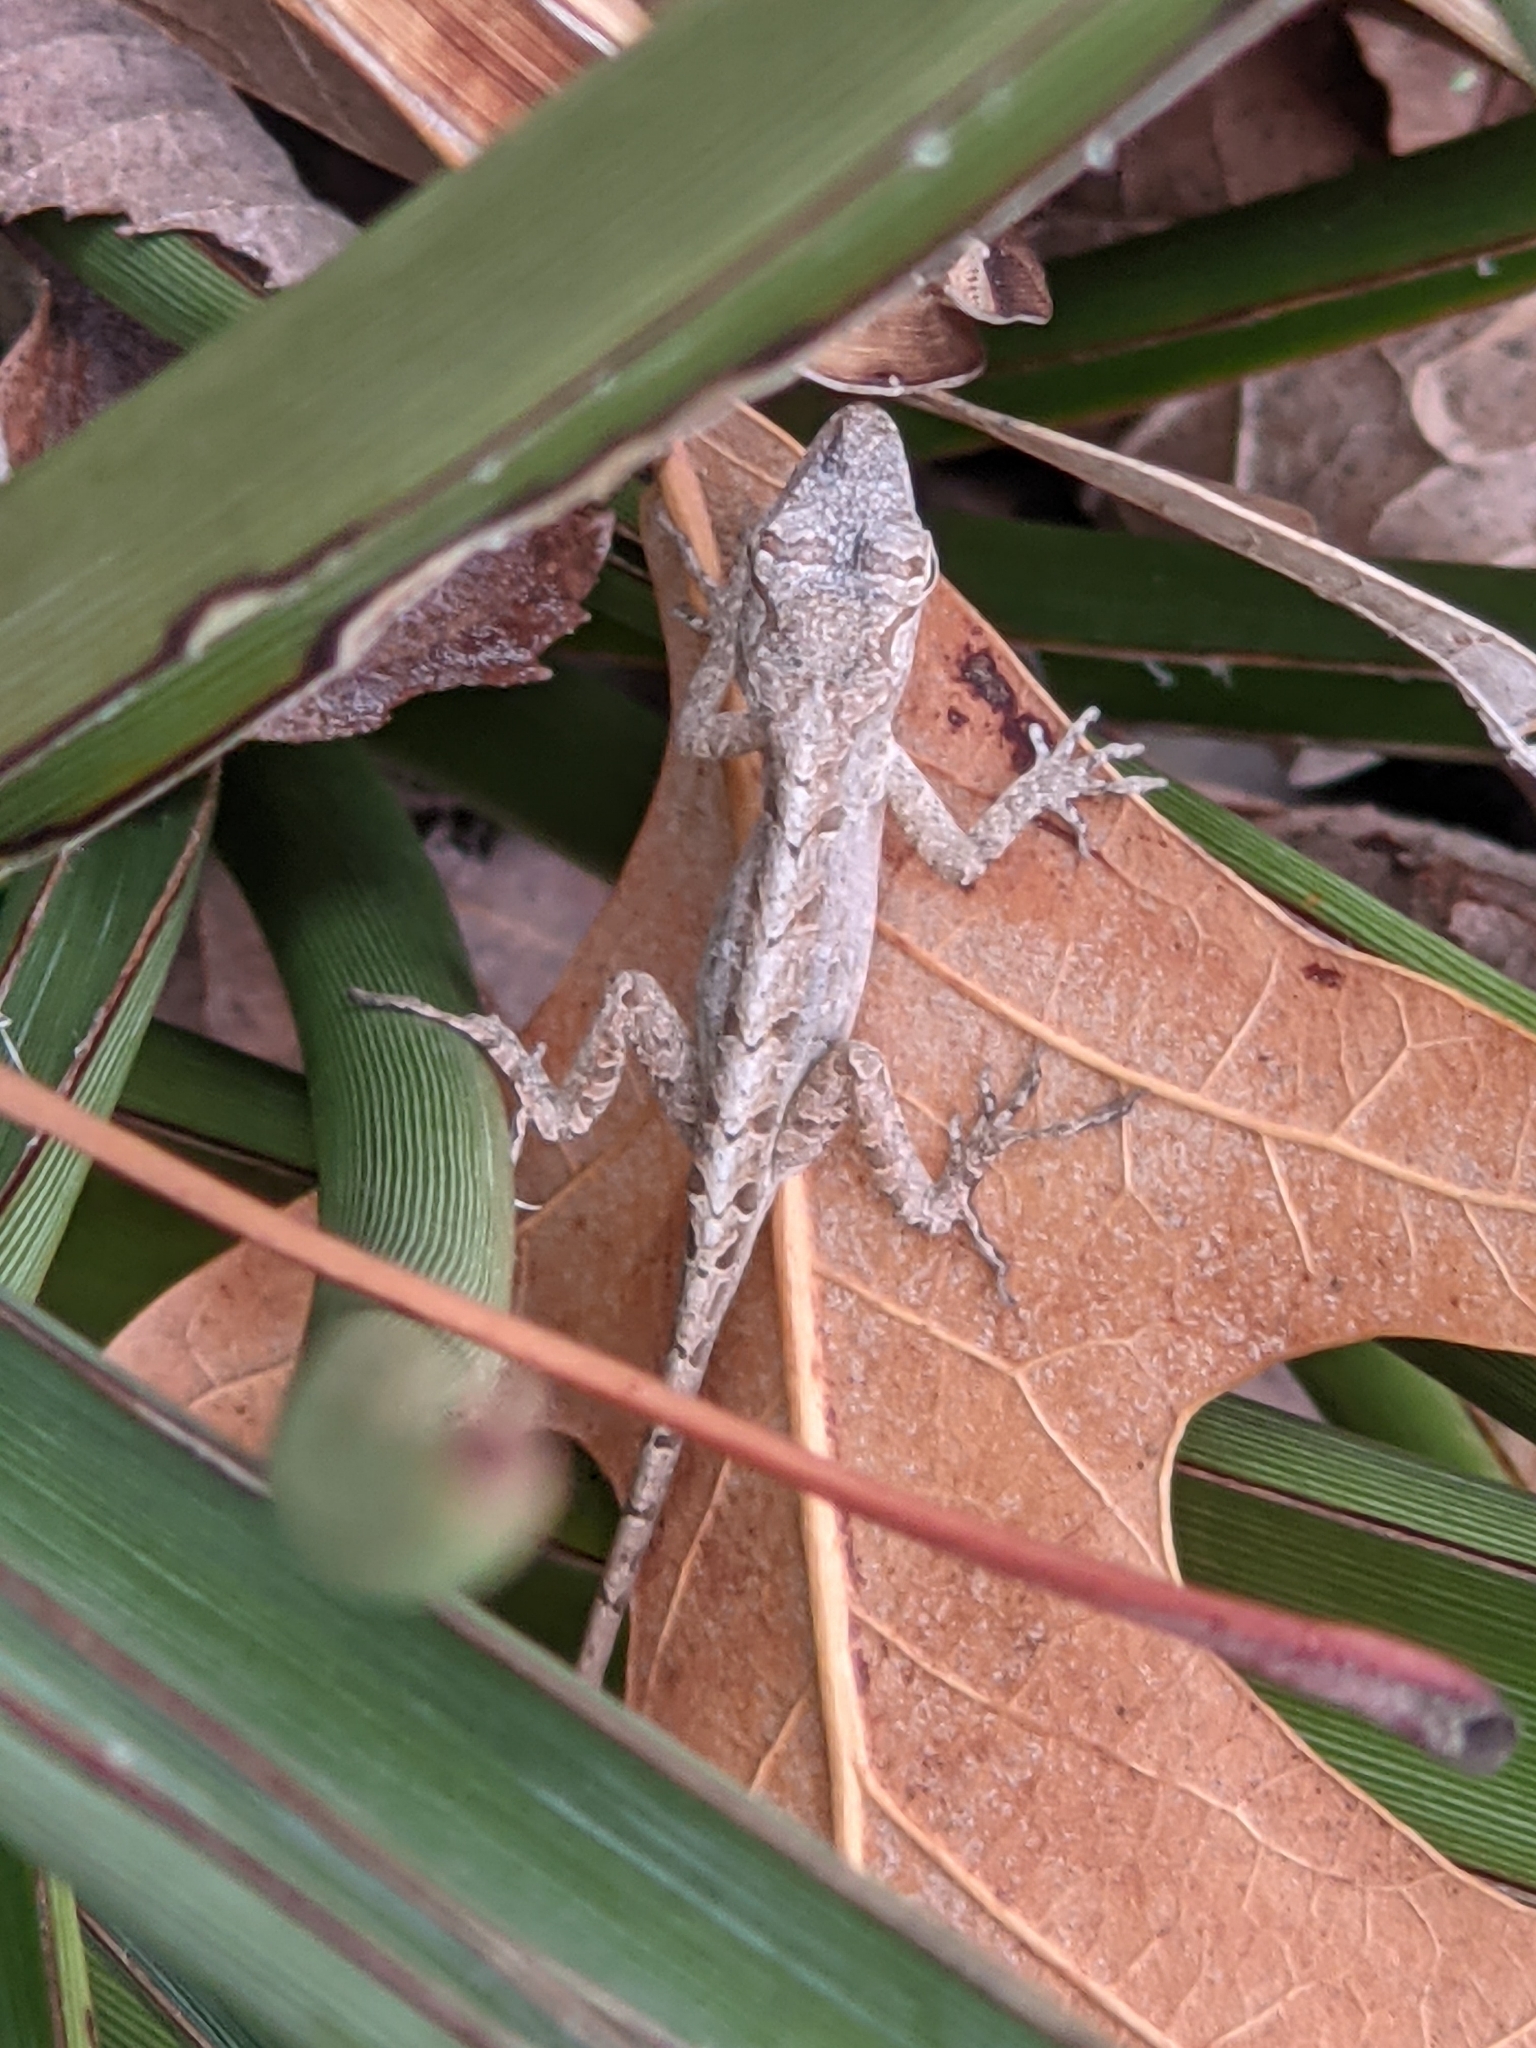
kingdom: Animalia
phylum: Chordata
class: Squamata
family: Dactyloidae
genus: Anolis
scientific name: Anolis sagrei
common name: Brown anole
